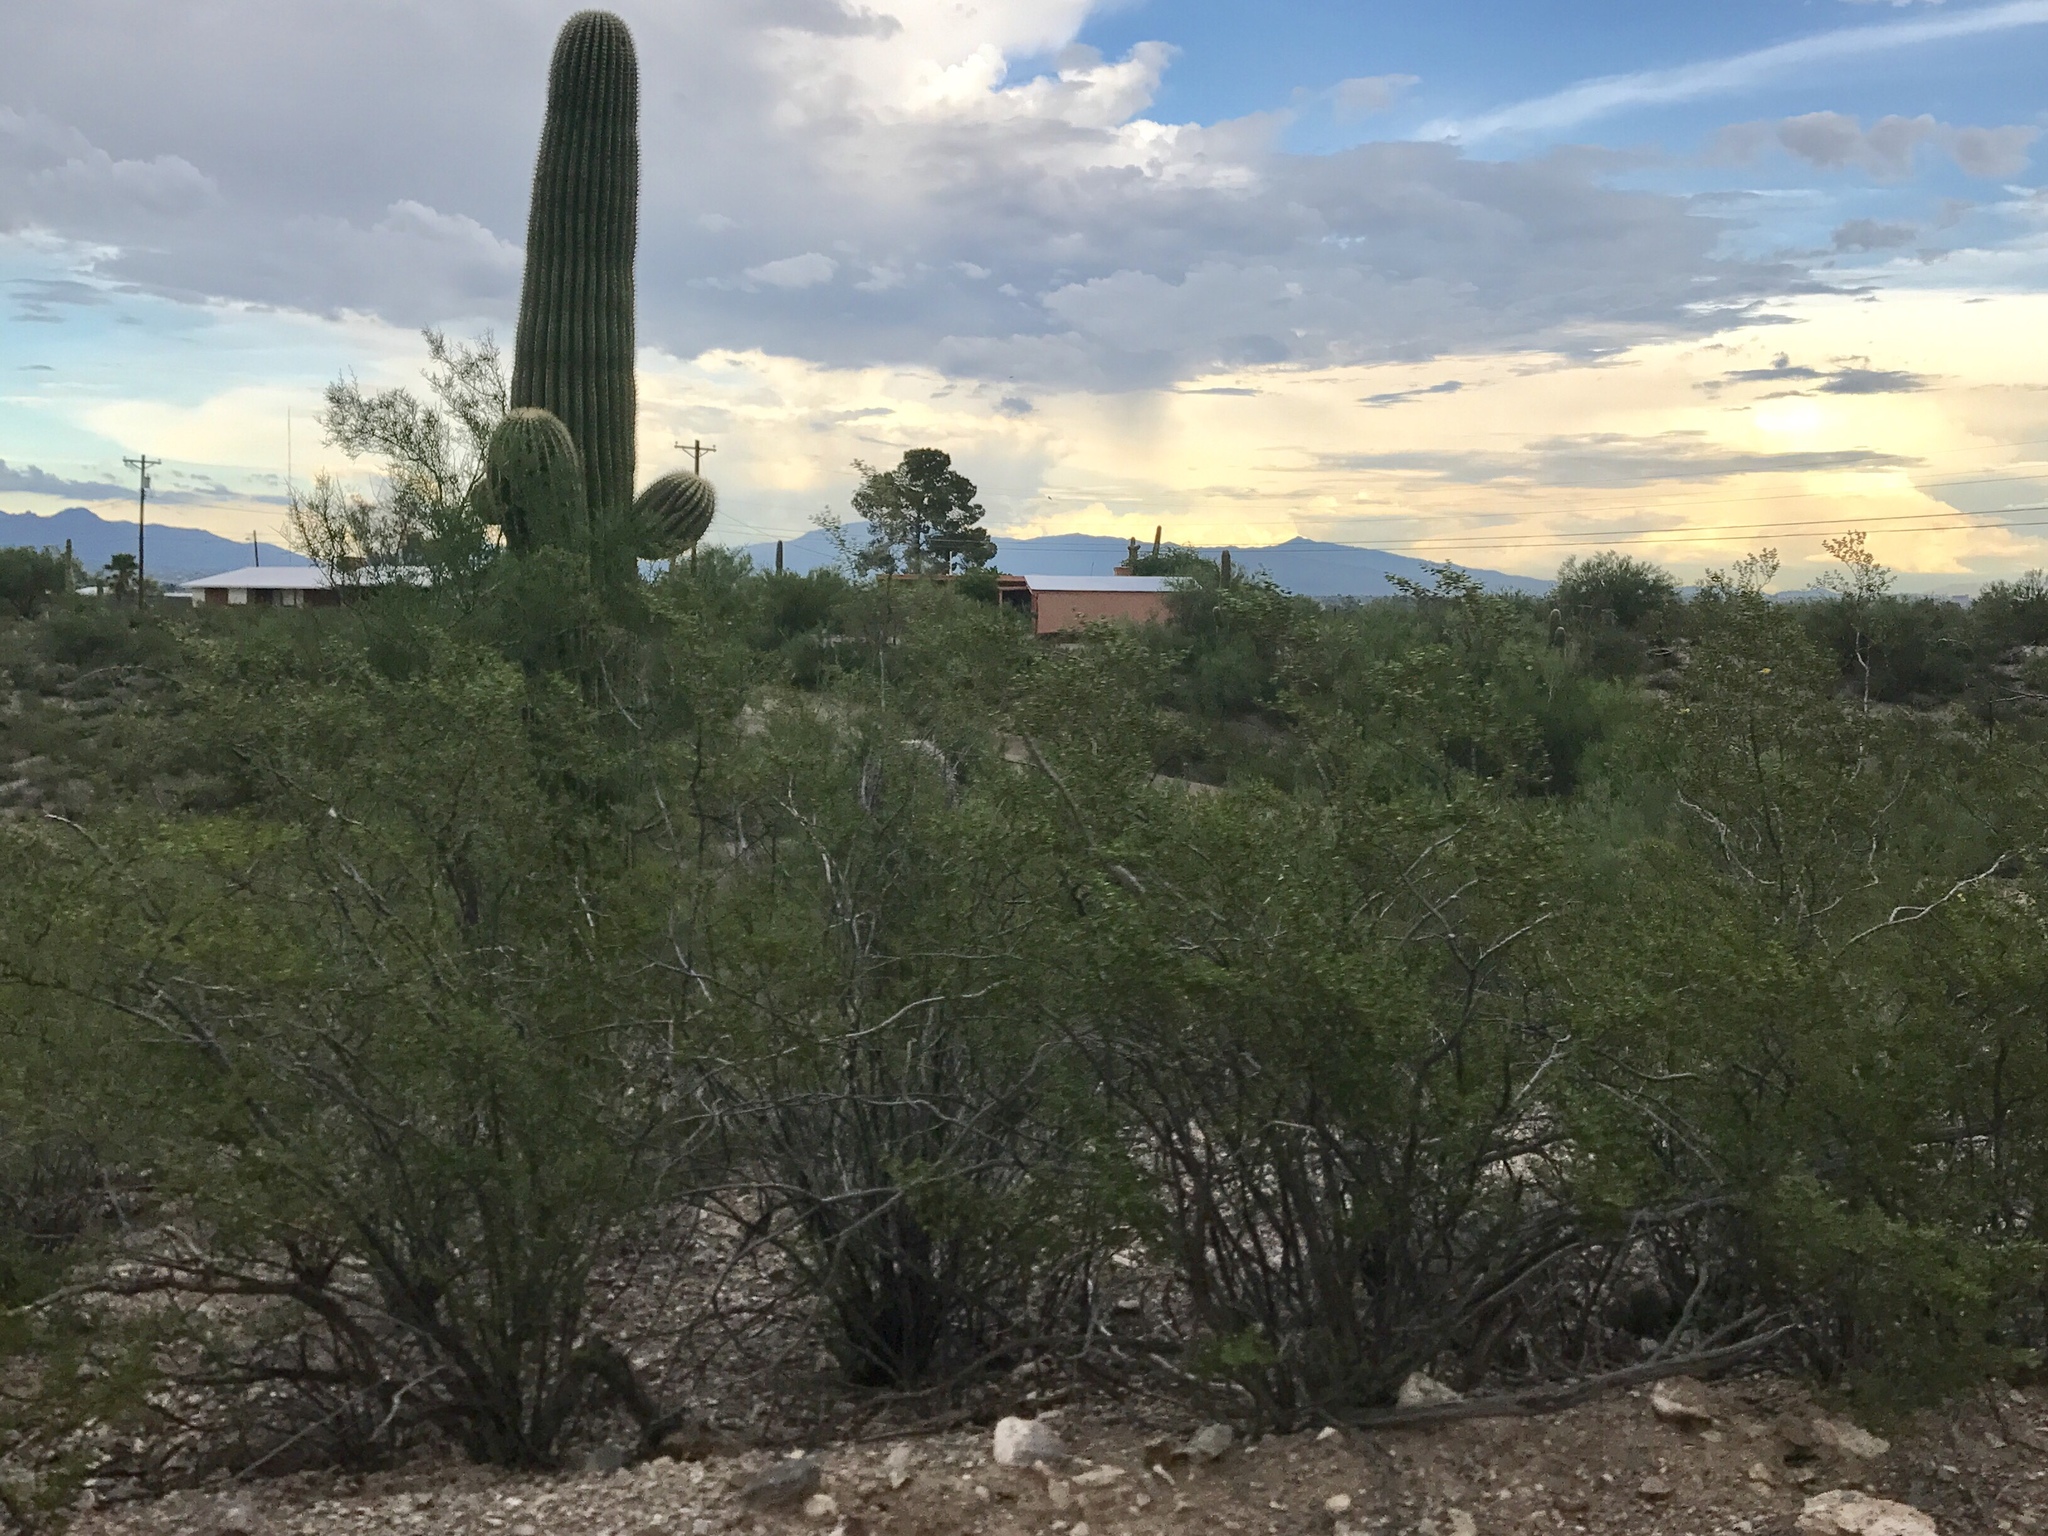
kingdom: Plantae
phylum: Tracheophyta
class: Magnoliopsida
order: Zygophyllales
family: Zygophyllaceae
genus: Larrea
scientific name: Larrea tridentata
